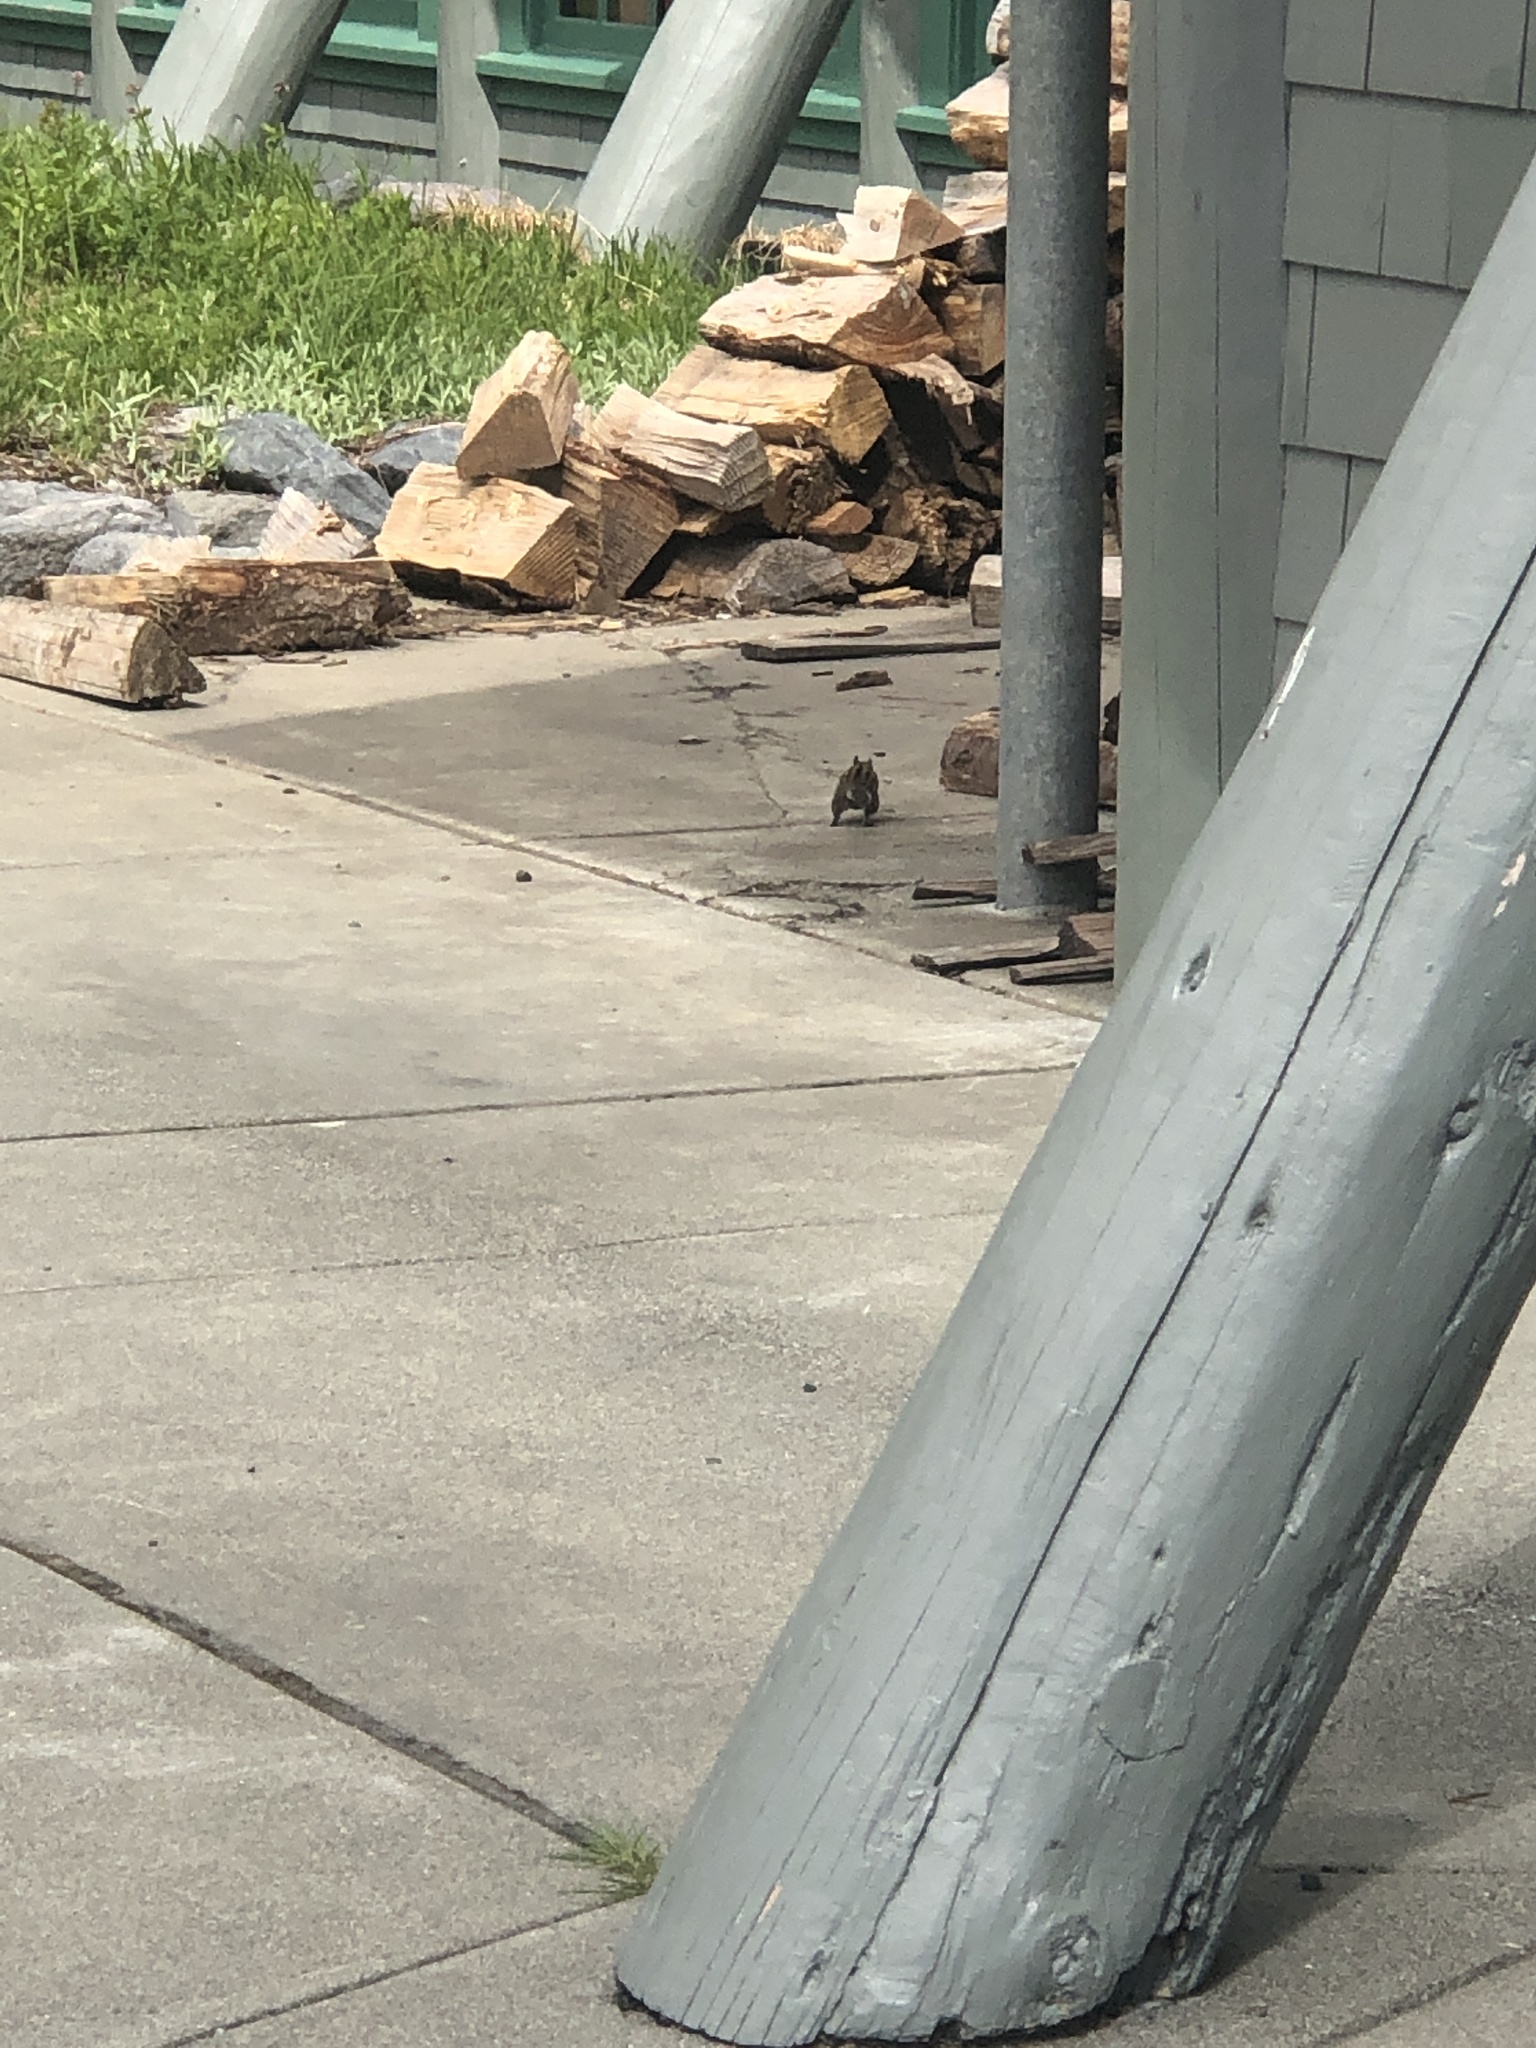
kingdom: Animalia
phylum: Chordata
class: Mammalia
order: Rodentia
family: Sciuridae
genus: Tamias
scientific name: Tamias townsendii
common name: Townsend's chipmunk
